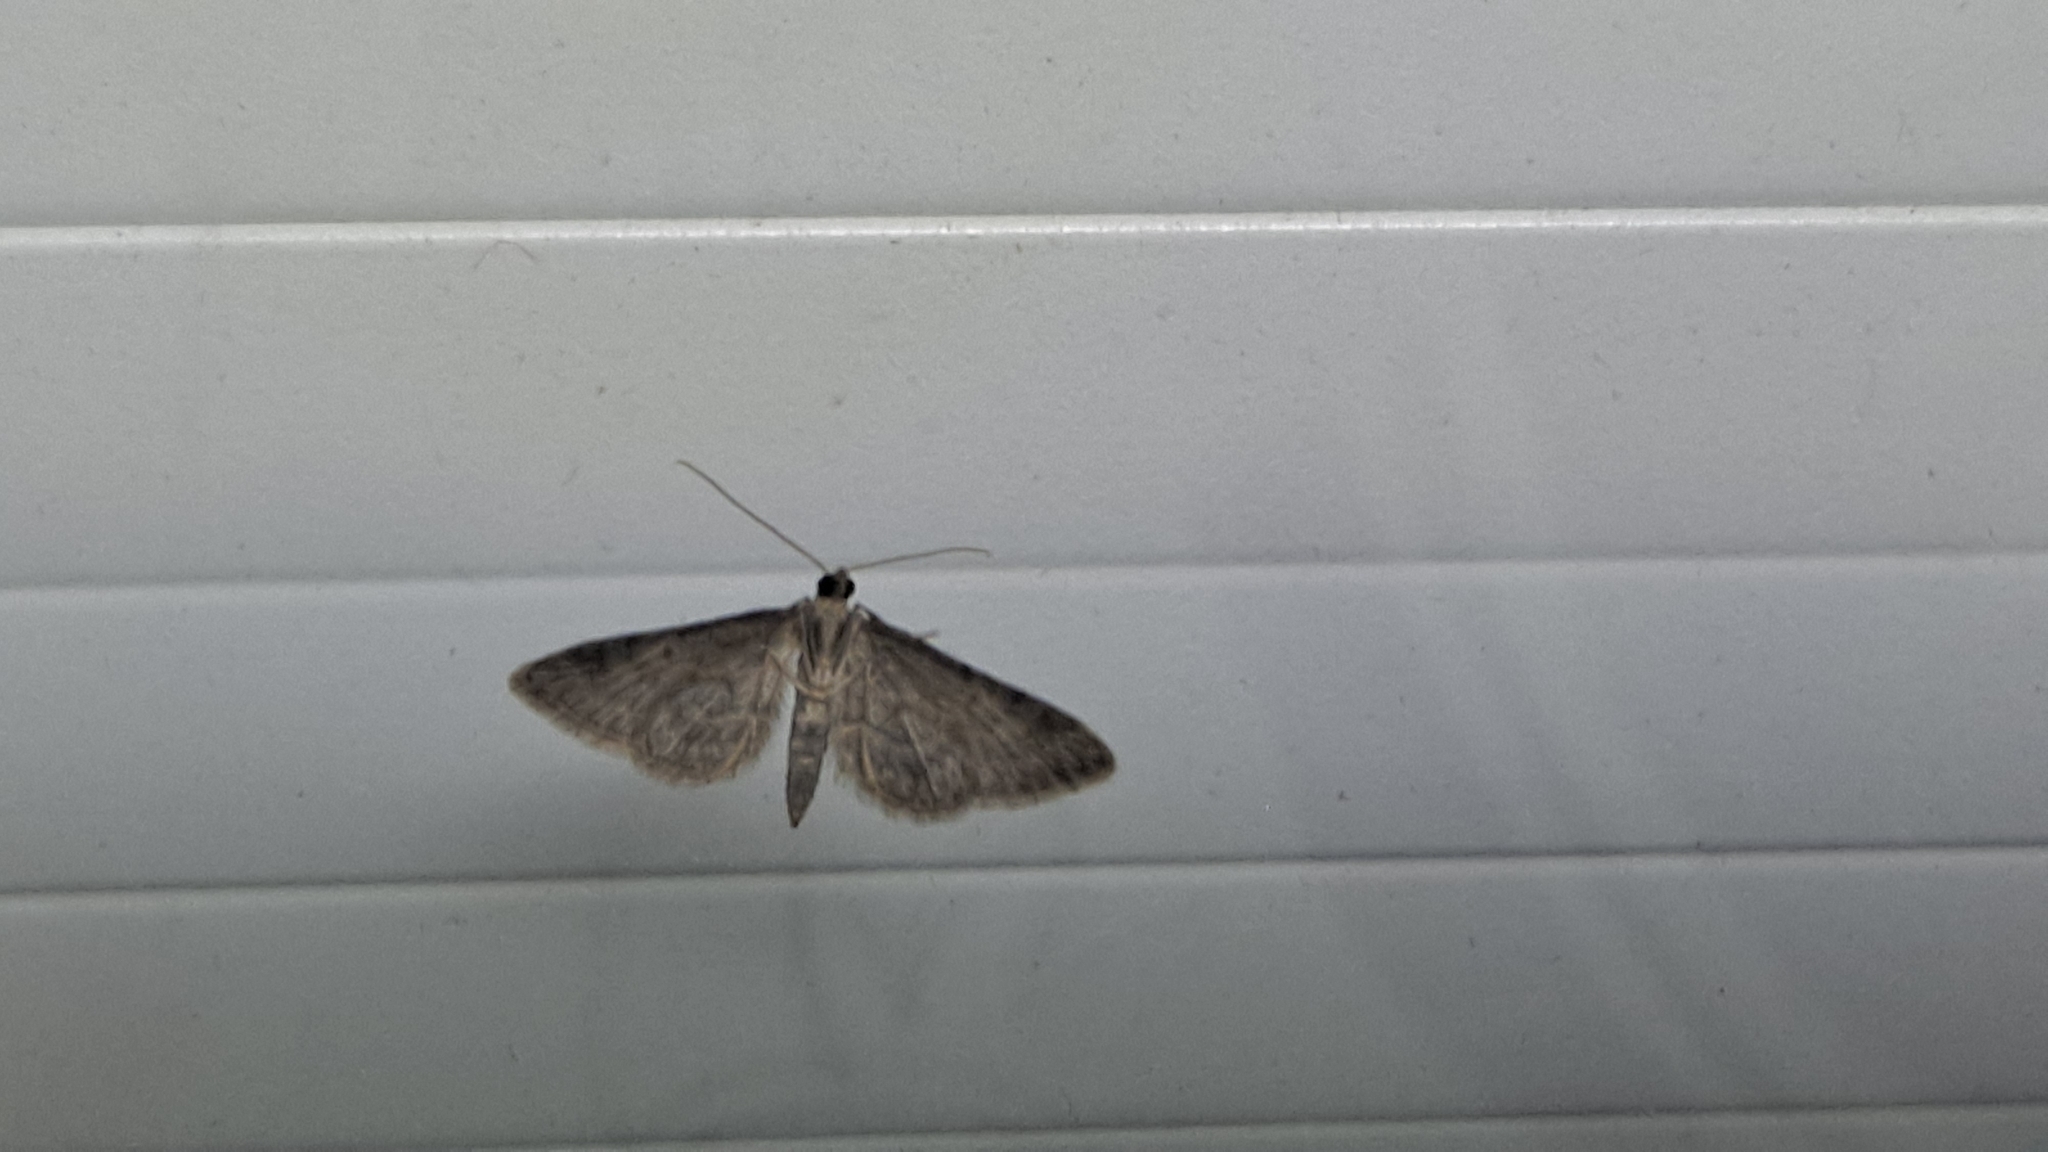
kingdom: Animalia
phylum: Arthropoda
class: Insecta
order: Lepidoptera
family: Geometridae
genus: Gymnoscelis
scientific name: Gymnoscelis rufifasciata
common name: Double-striped pug
